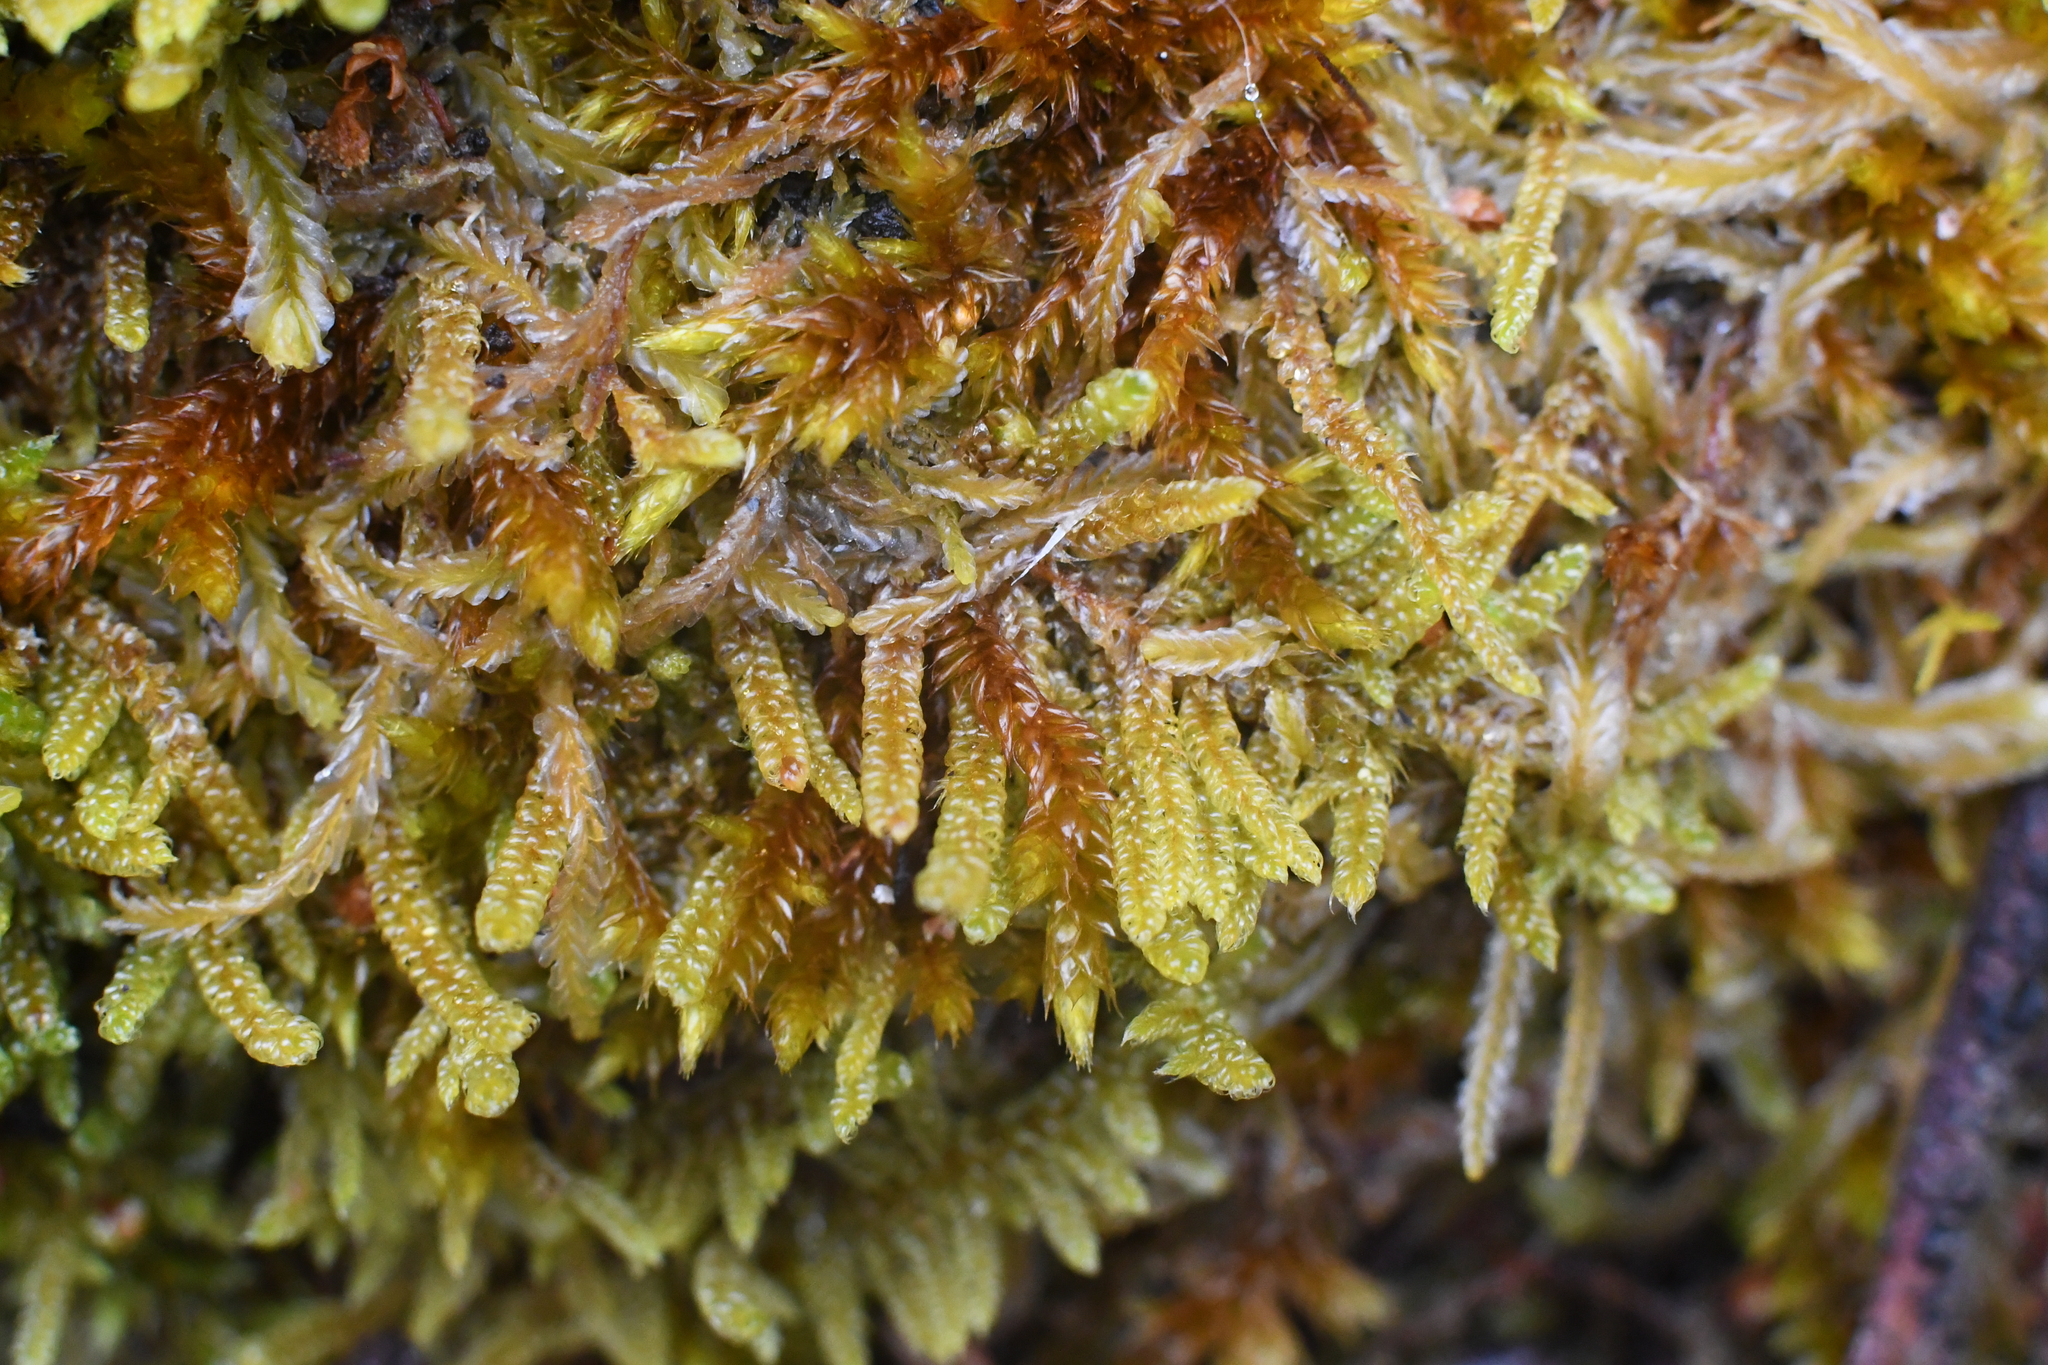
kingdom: Plantae
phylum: Bryophyta
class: Bryopsida
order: Hypnales
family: Hypnaceae
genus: Hypnum
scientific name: Hypnum cupressiforme
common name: Cypress-leaved plait-moss
